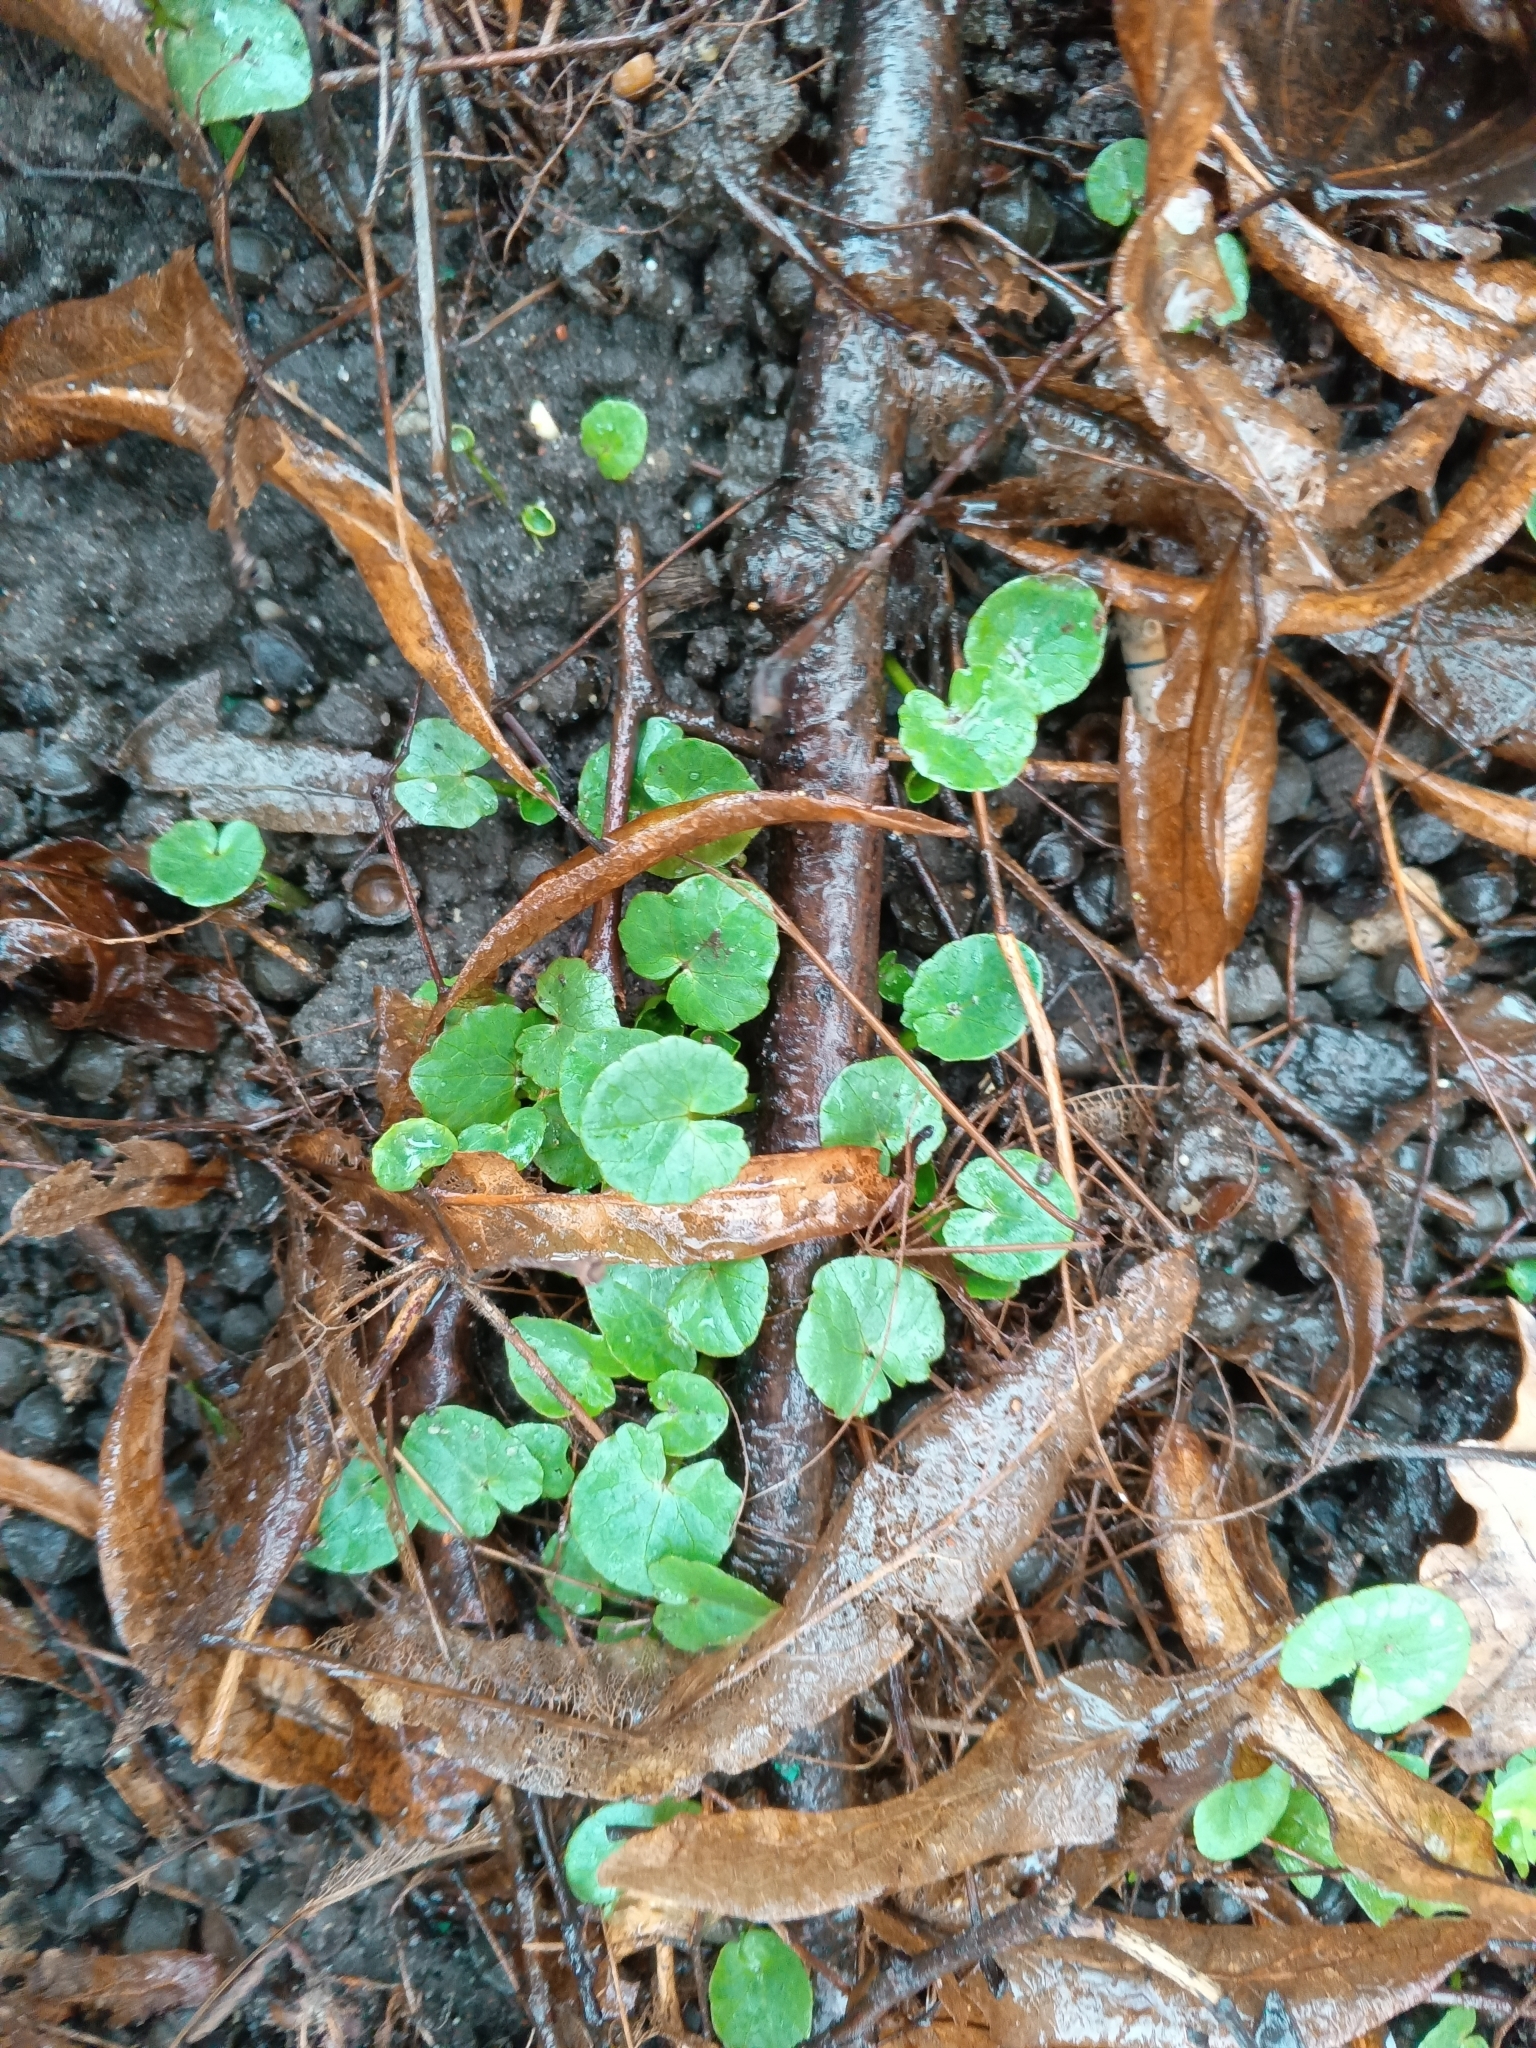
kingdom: Plantae
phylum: Tracheophyta
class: Magnoliopsida
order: Ranunculales
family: Ranunculaceae
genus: Ficaria
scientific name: Ficaria verna
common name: Lesser celandine
